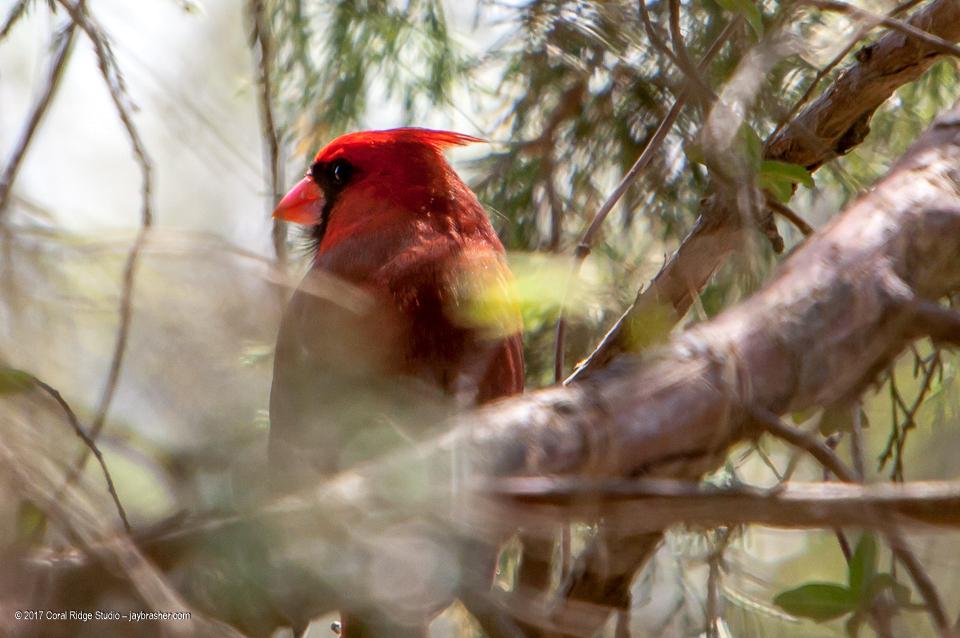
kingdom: Animalia
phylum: Chordata
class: Aves
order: Passeriformes
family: Cardinalidae
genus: Cardinalis
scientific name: Cardinalis cardinalis
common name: Northern cardinal
